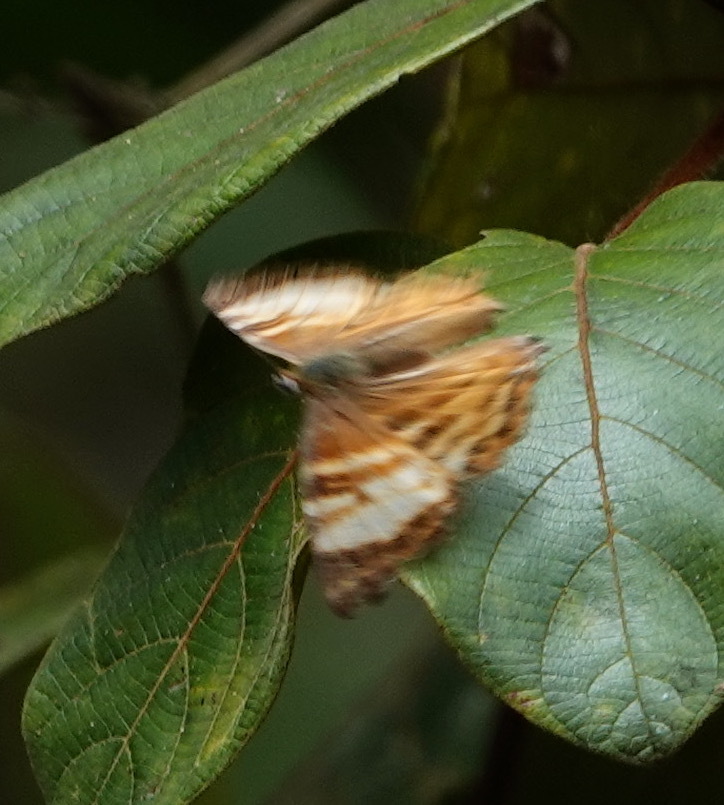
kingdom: Animalia
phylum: Arthropoda
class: Insecta
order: Lepidoptera
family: Lycaenidae
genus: Dodona
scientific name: Dodona elvira
